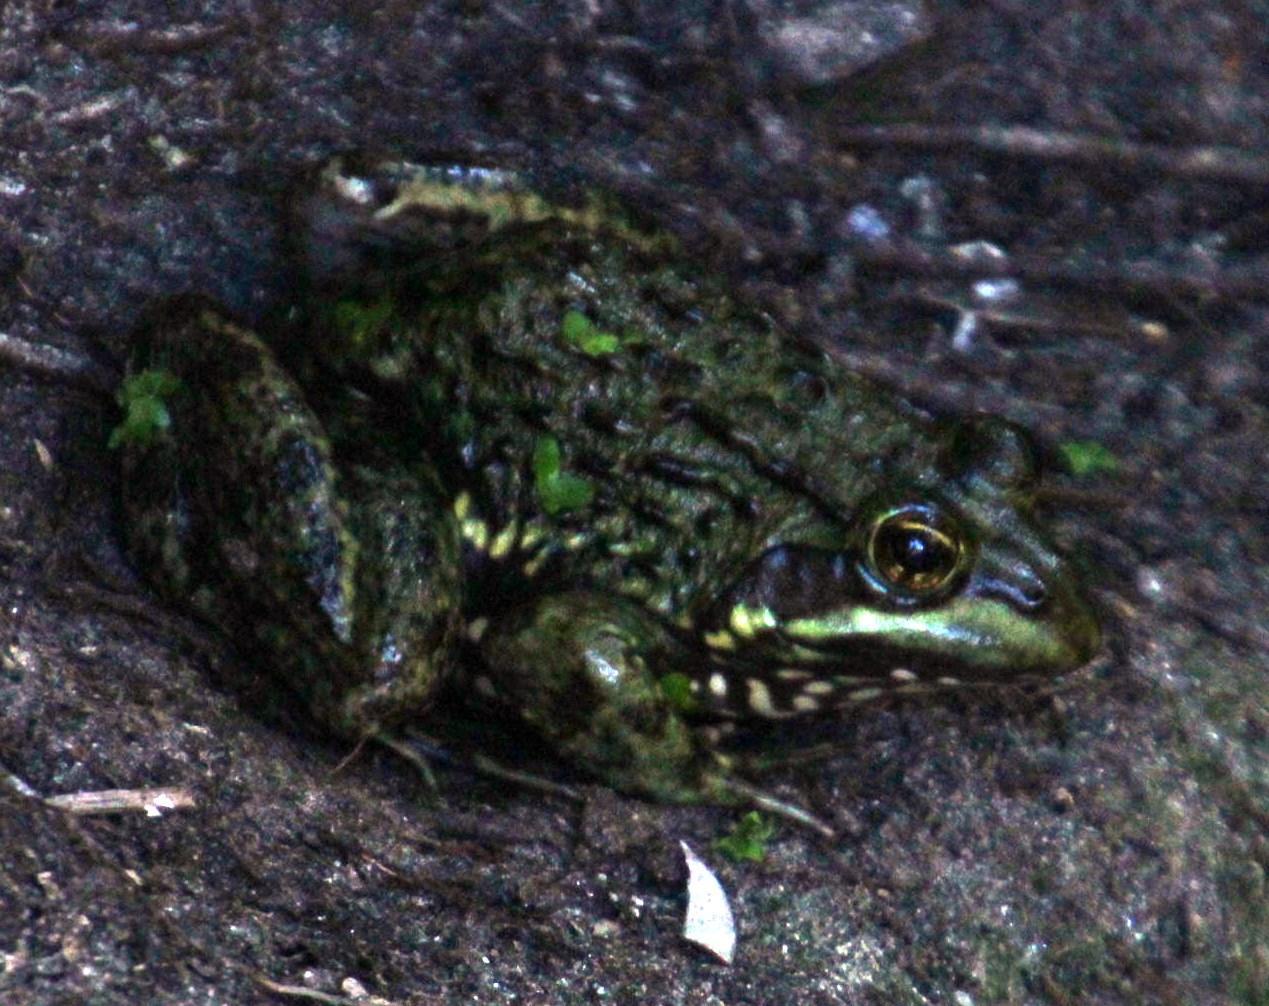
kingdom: Animalia
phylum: Chordata
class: Amphibia
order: Anura
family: Pyxicephalidae
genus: Amietia
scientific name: Amietia fuscigula
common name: Cape rana
